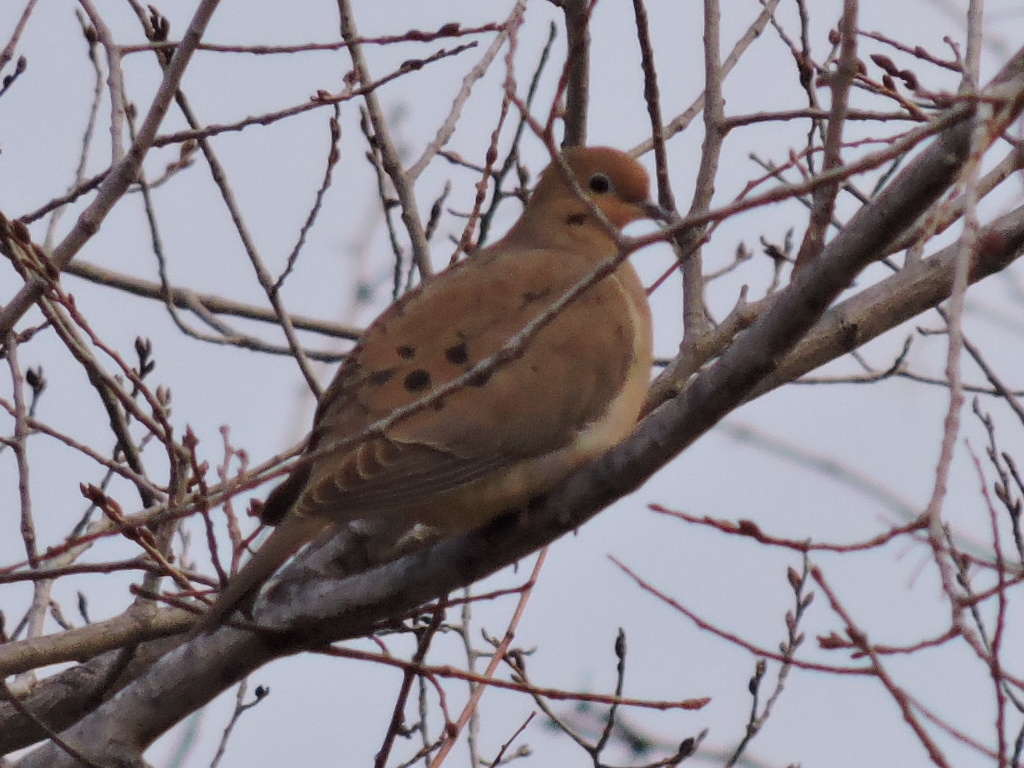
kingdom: Animalia
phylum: Chordata
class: Aves
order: Columbiformes
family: Columbidae
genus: Zenaida
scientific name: Zenaida macroura
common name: Mourning dove
